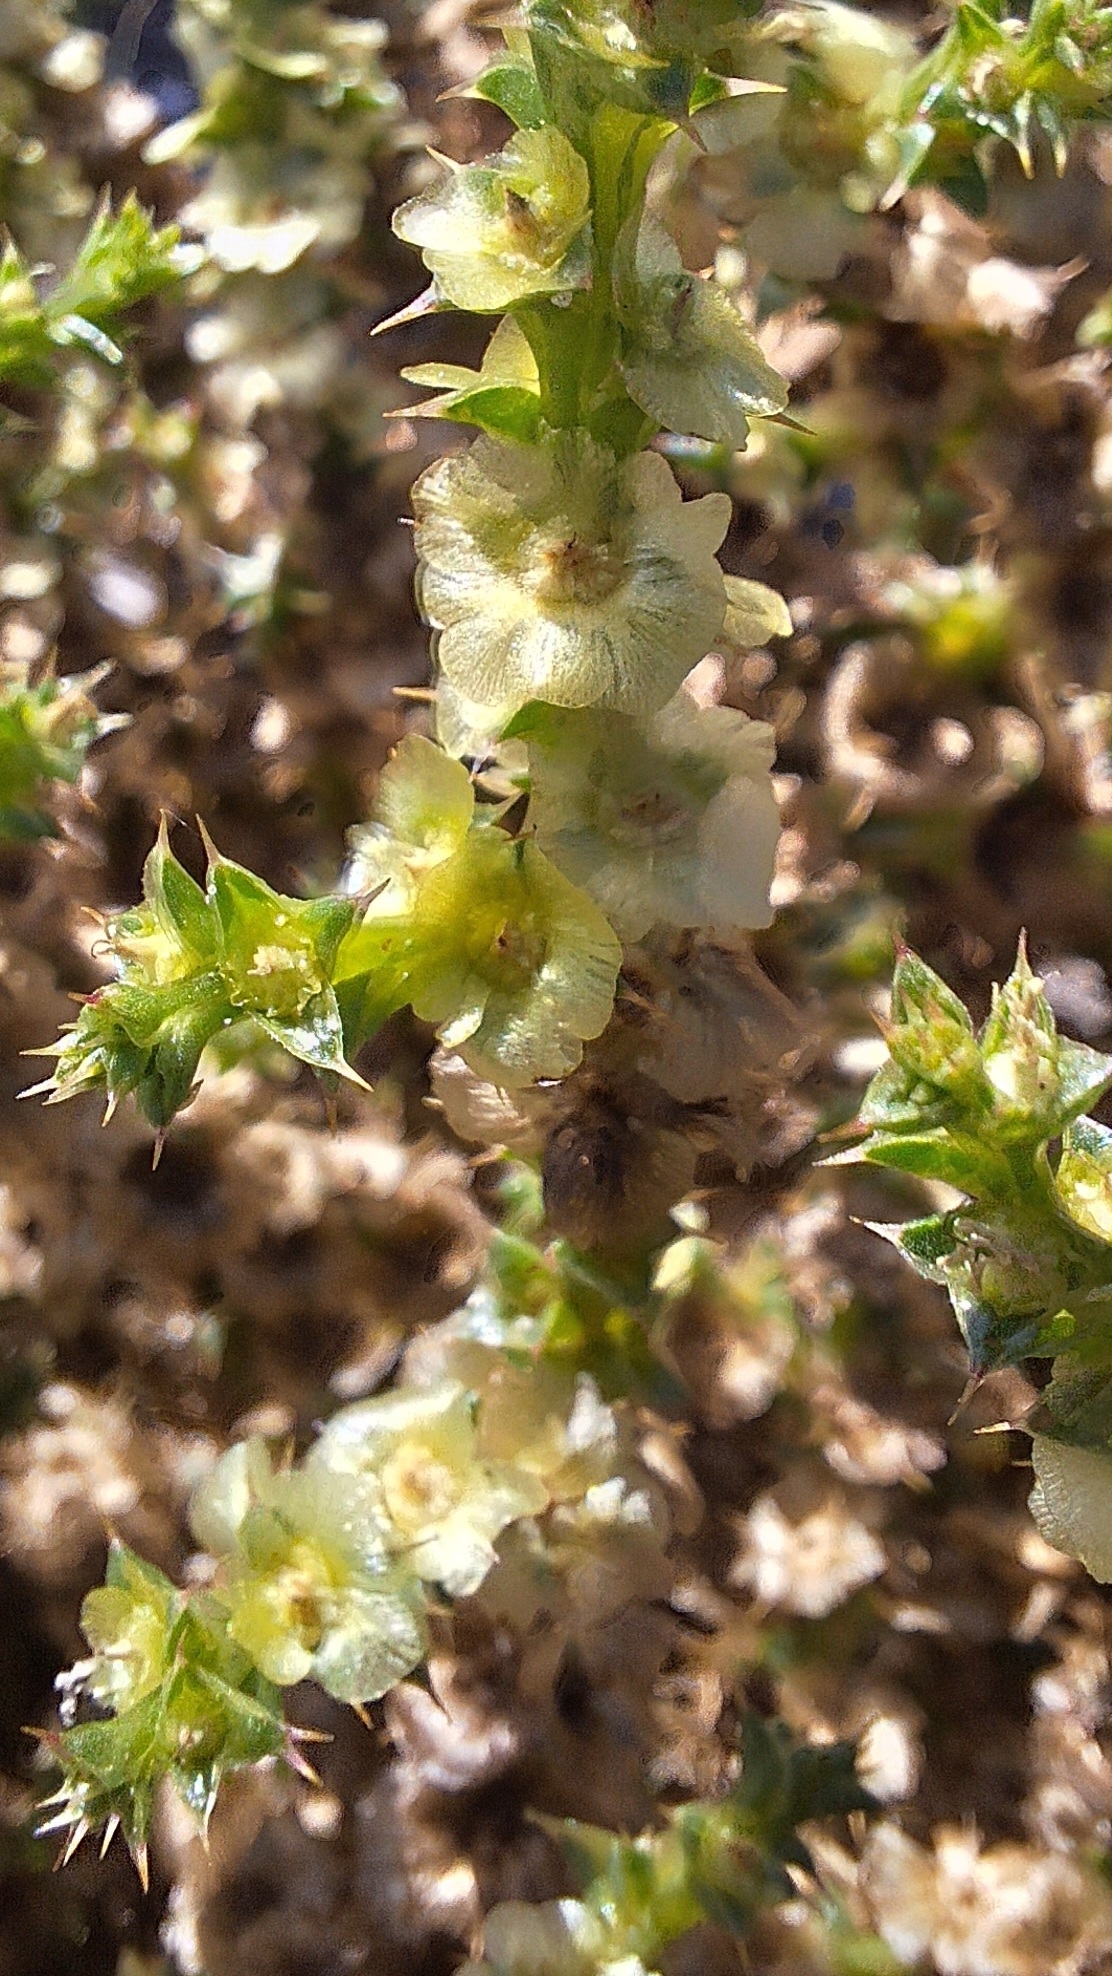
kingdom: Plantae
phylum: Tracheophyta
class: Magnoliopsida
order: Caryophyllales
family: Amaranthaceae
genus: Salsola
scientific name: Salsola australis
